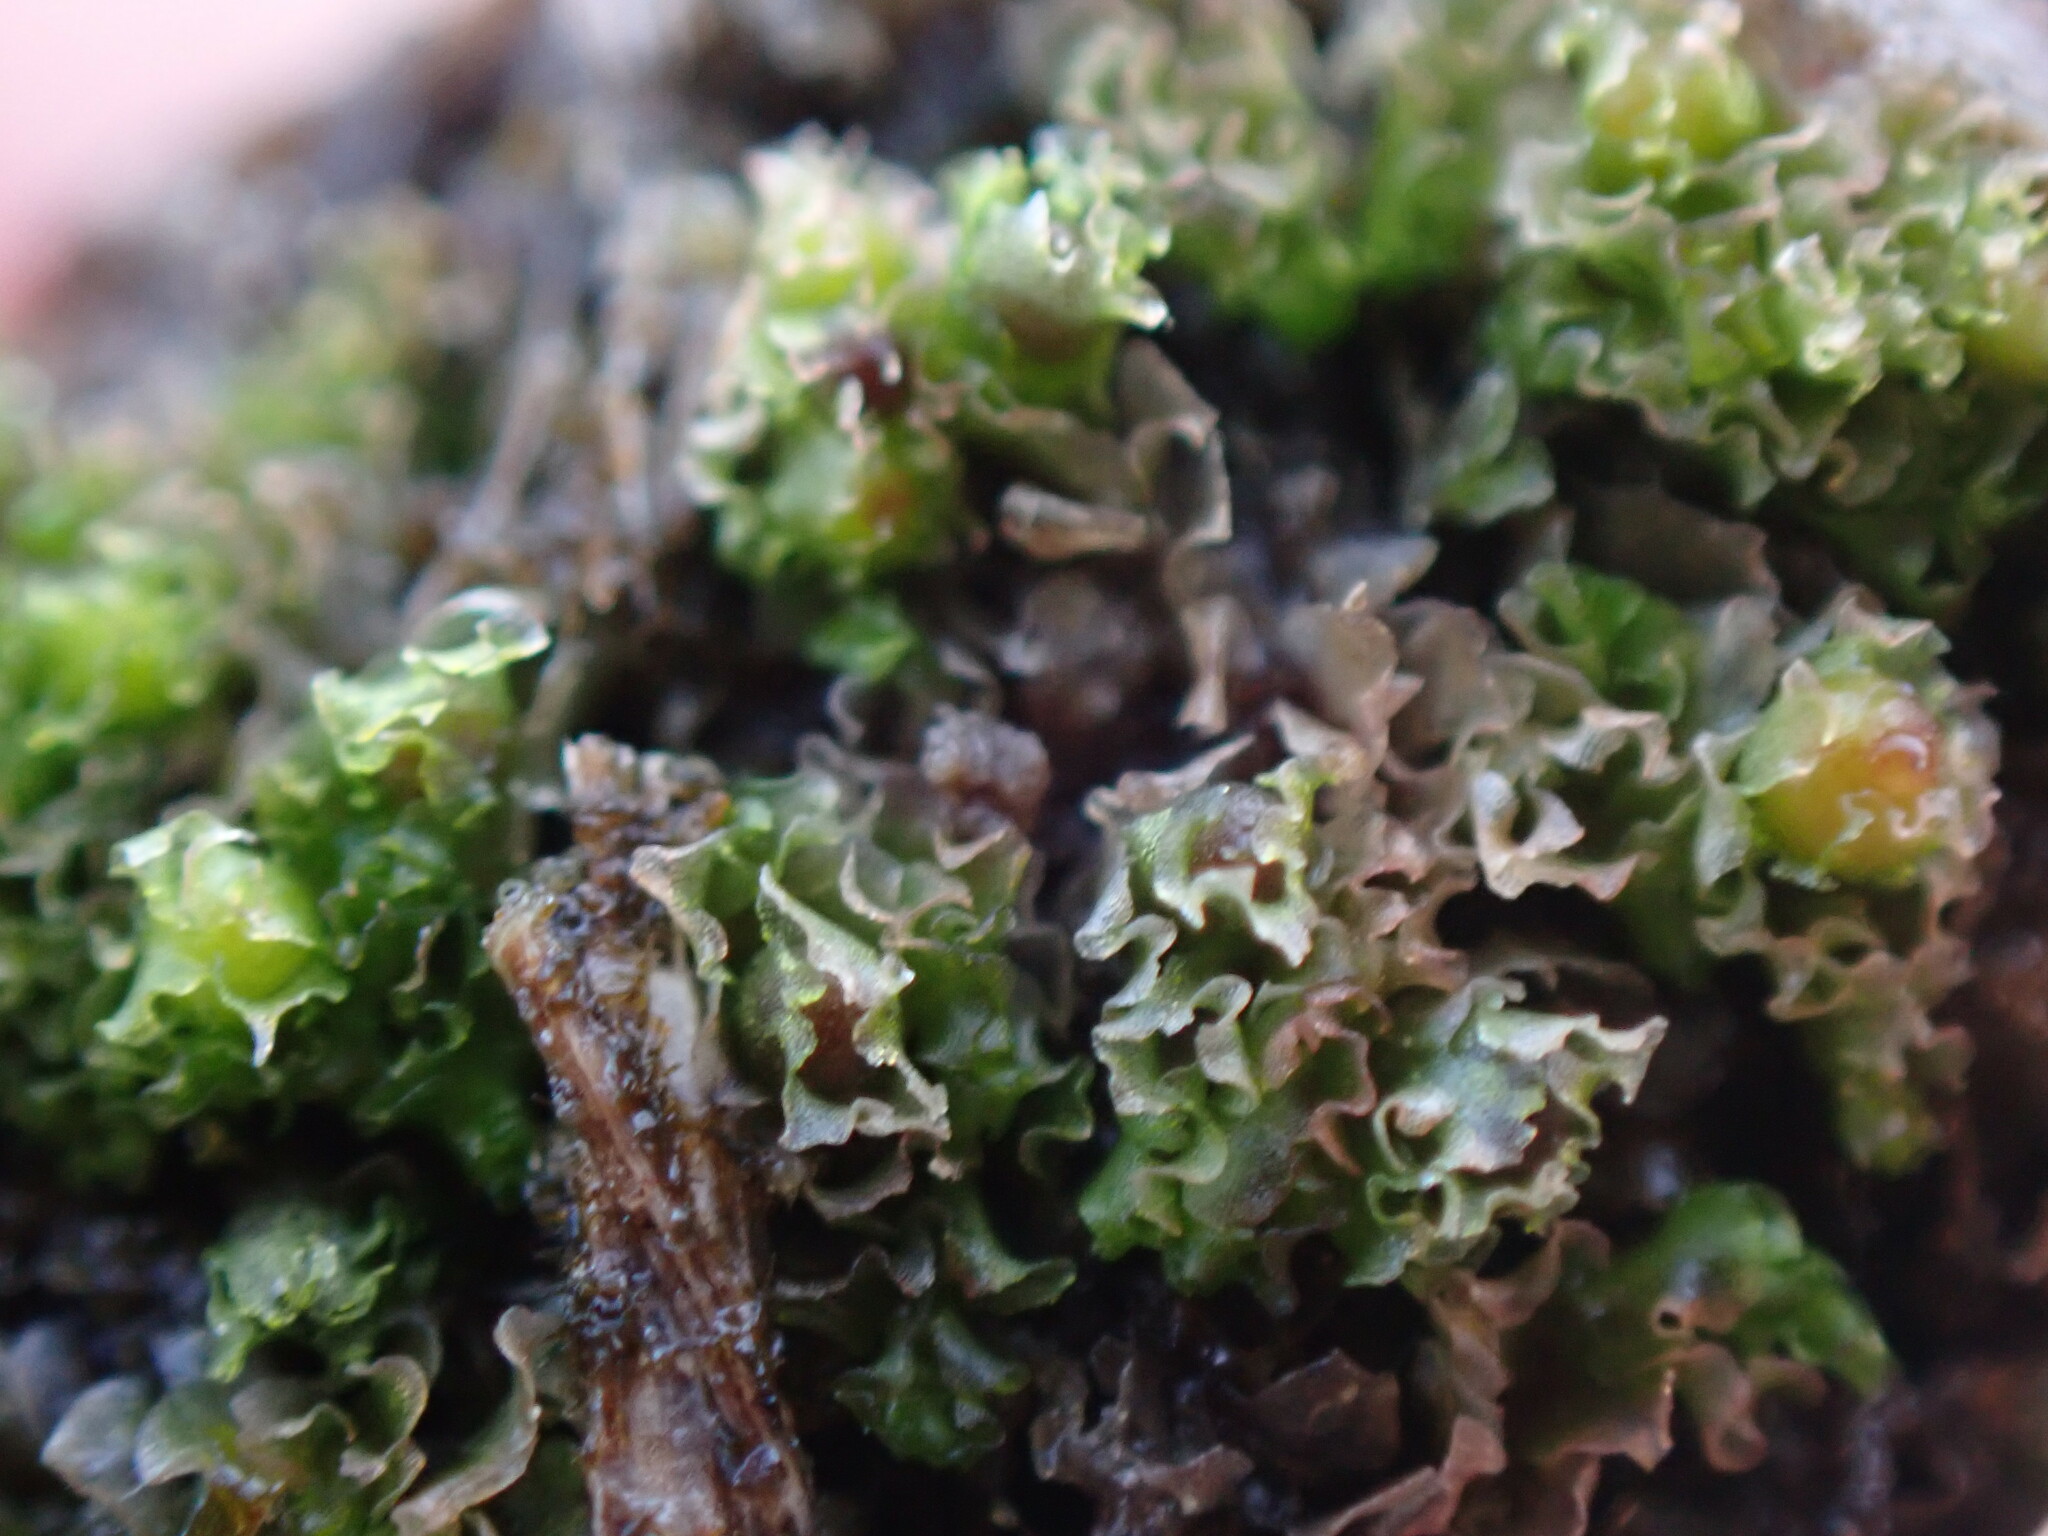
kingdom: Plantae
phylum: Marchantiophyta
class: Jungermanniopsida
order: Fossombroniales
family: Fossombroniaceae
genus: Fossombronia
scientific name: Fossombronia foveolata
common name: Pitted frillwort
